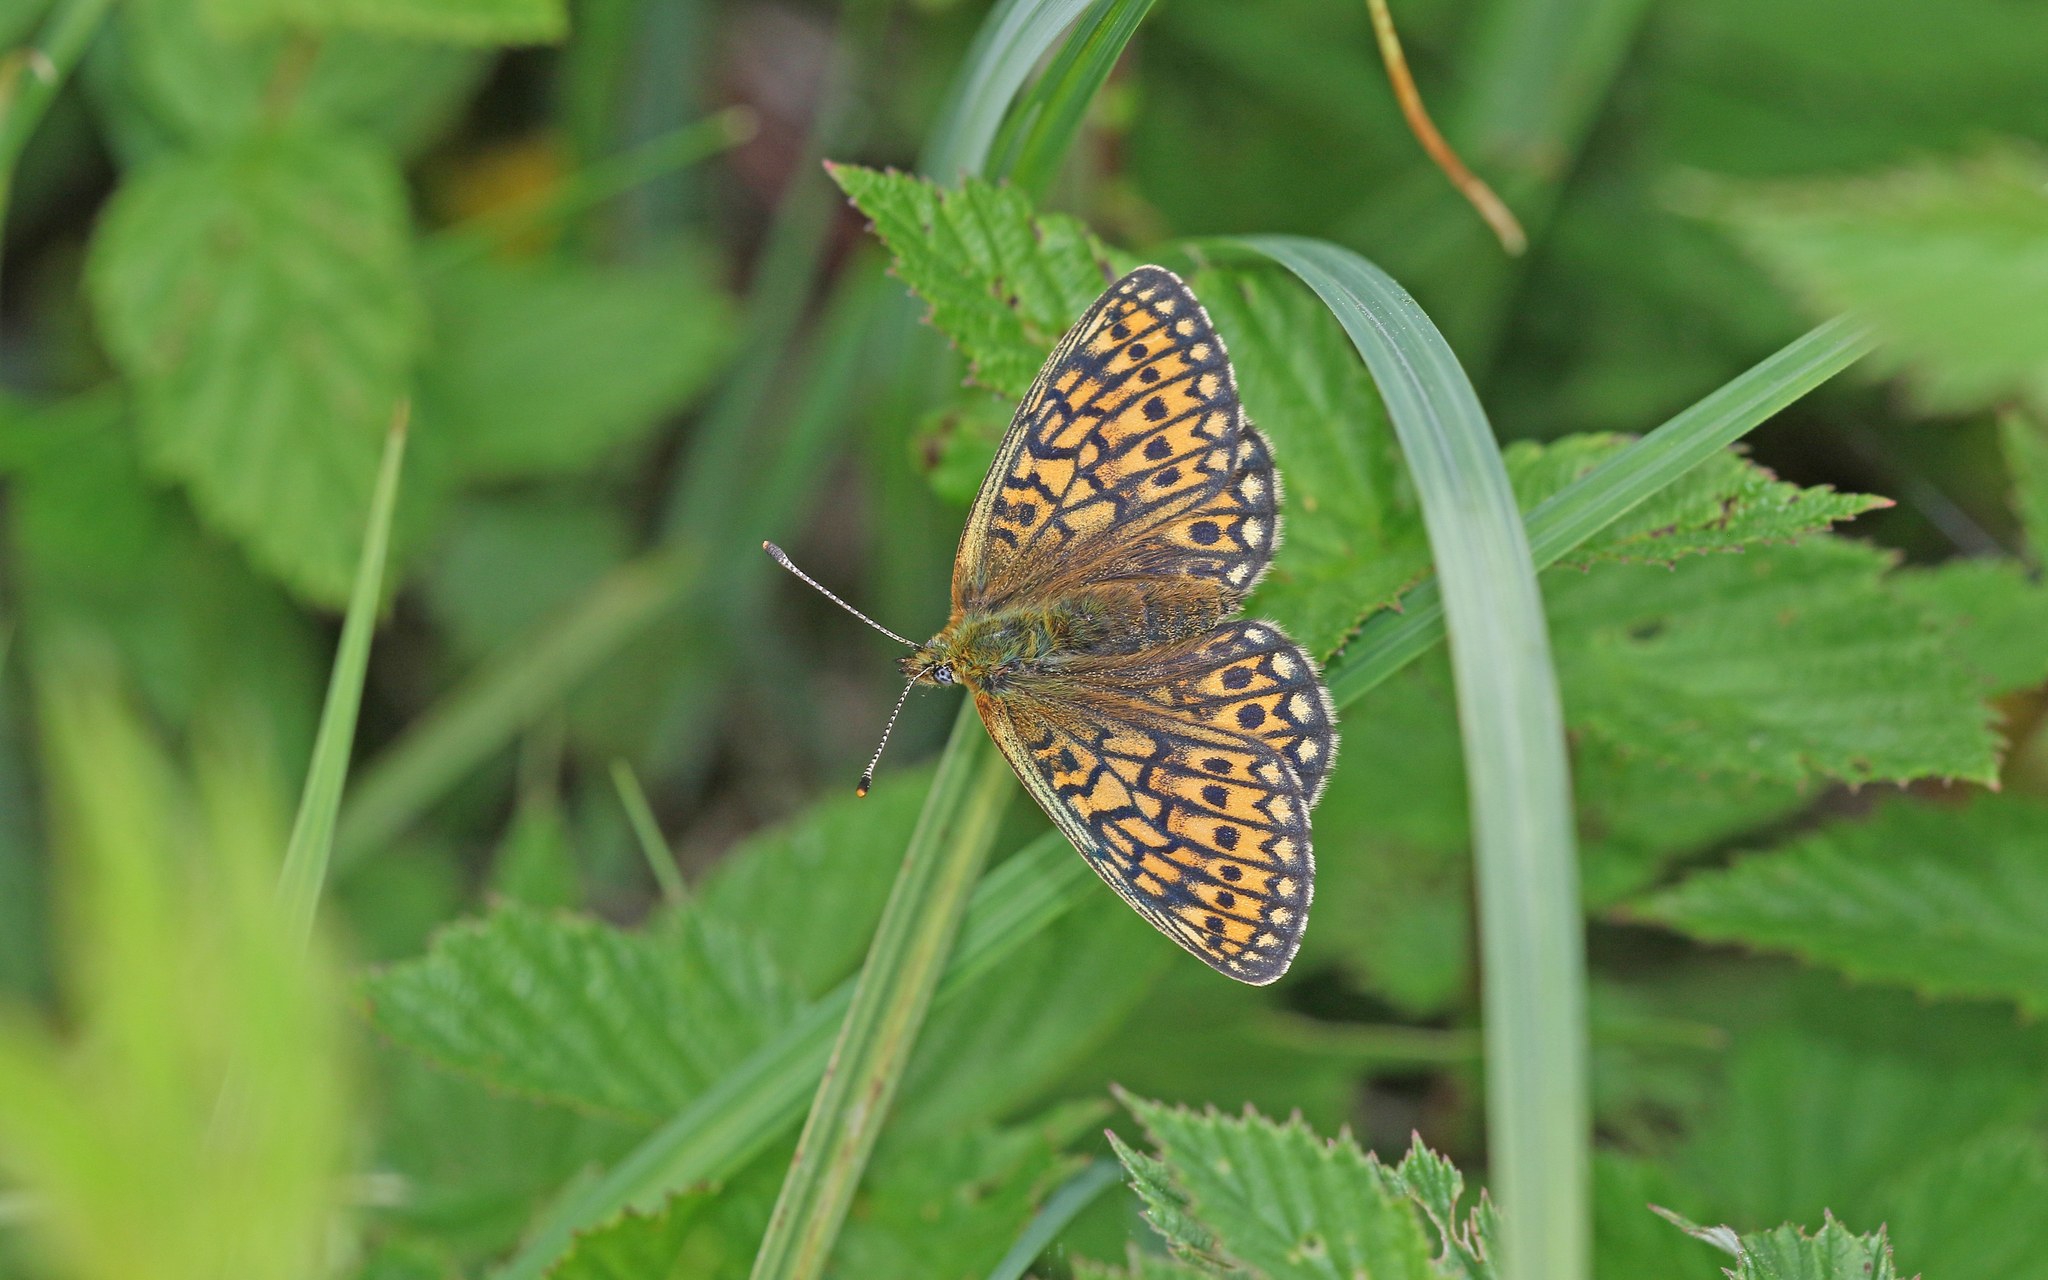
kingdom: Animalia
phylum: Arthropoda
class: Insecta
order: Lepidoptera
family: Nymphalidae
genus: Boloria
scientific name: Boloria eunomia
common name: Bog fritillary
